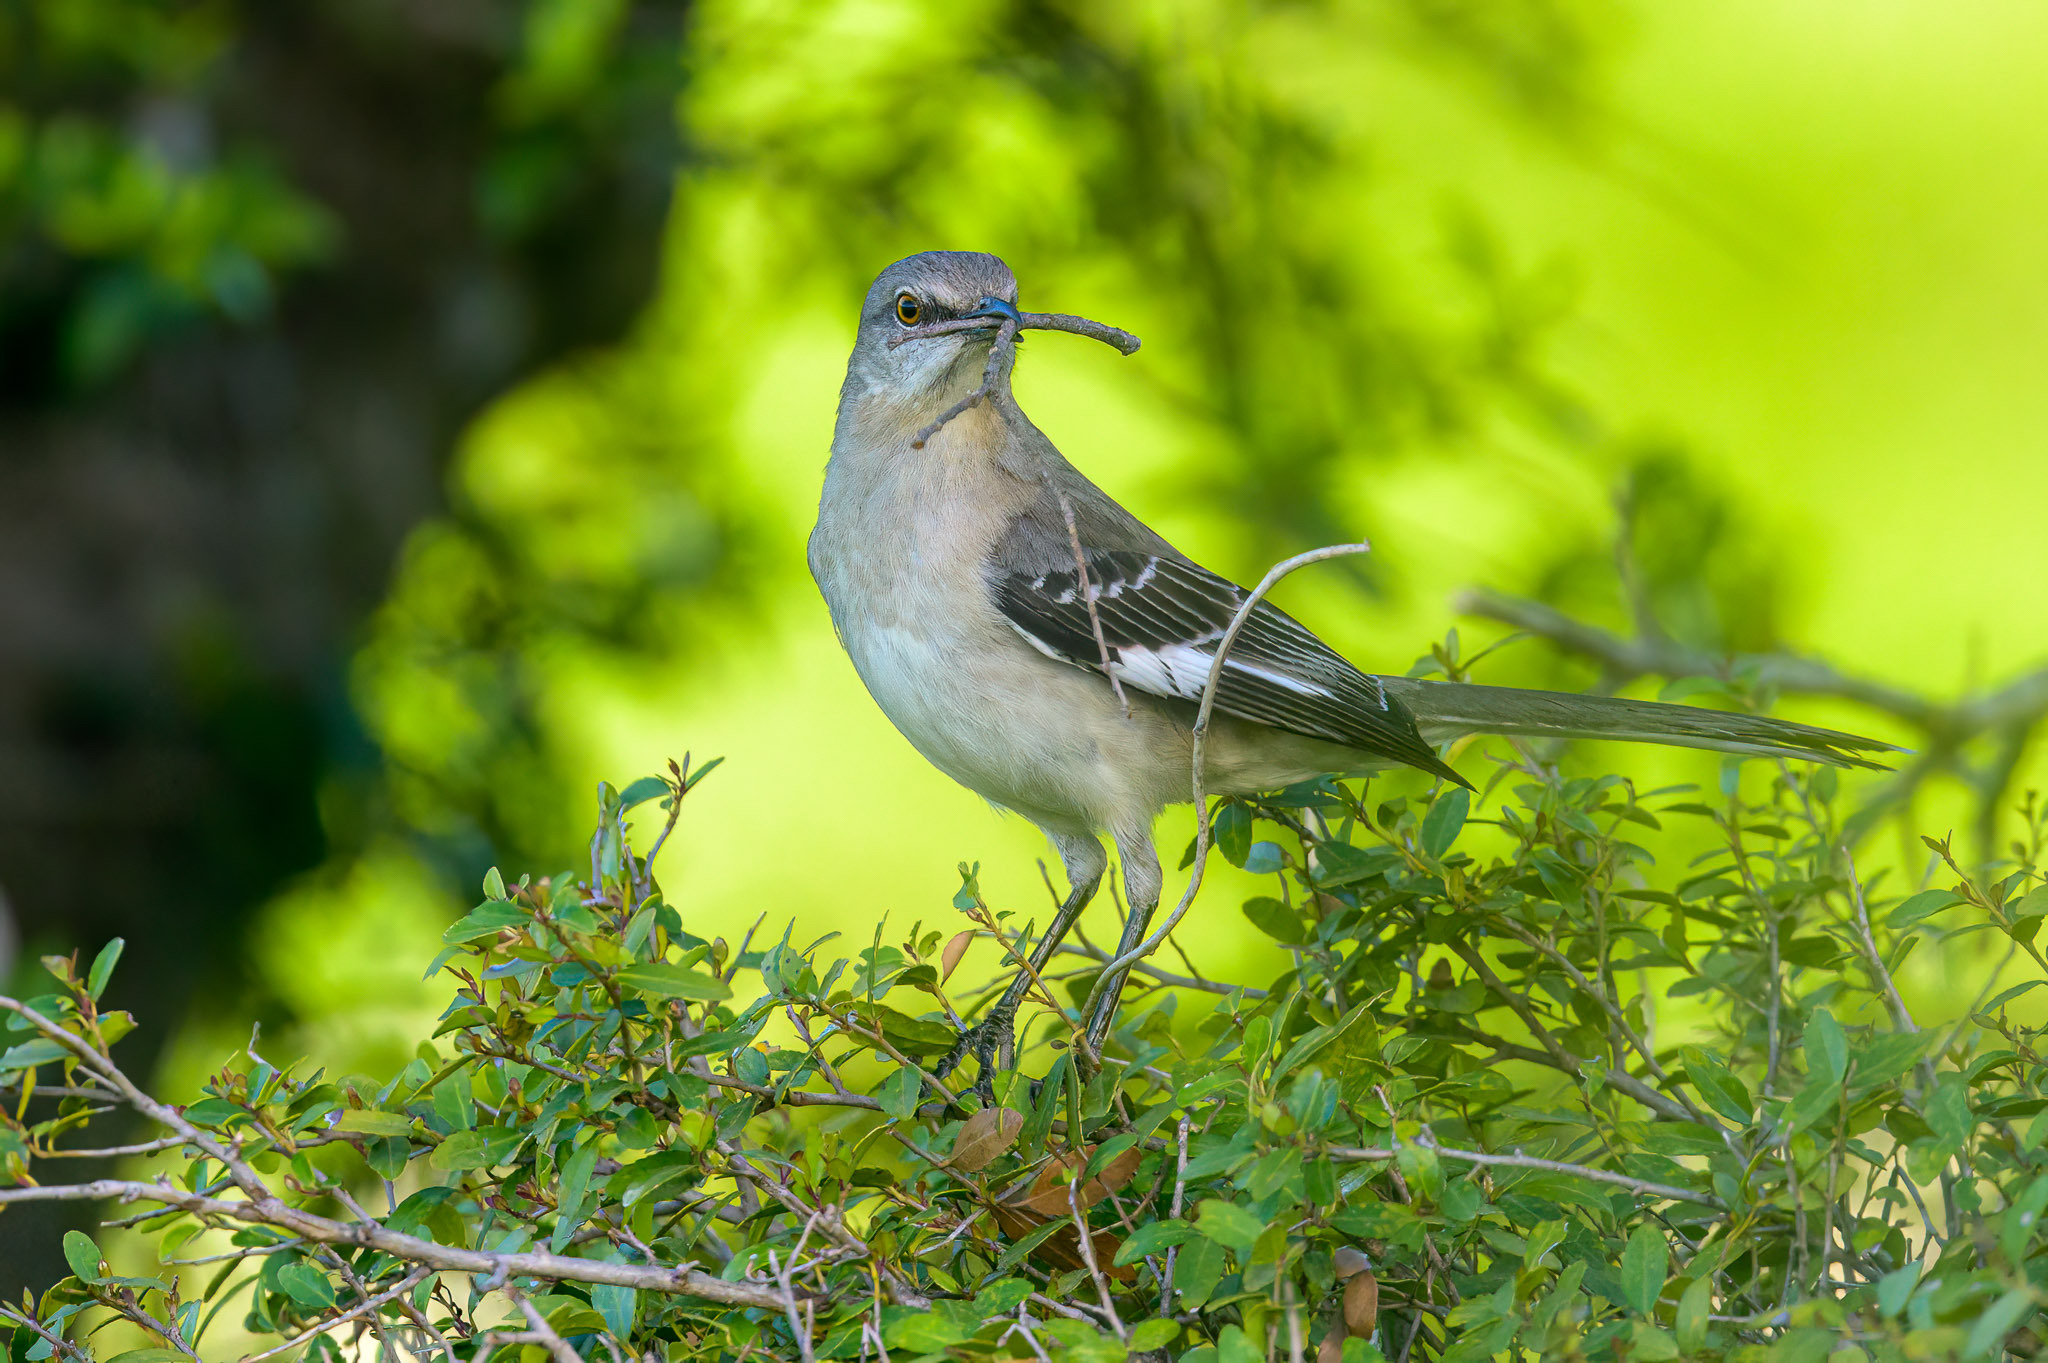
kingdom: Animalia
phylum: Chordata
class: Aves
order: Passeriformes
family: Mimidae
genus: Mimus
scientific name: Mimus polyglottos
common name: Northern mockingbird
